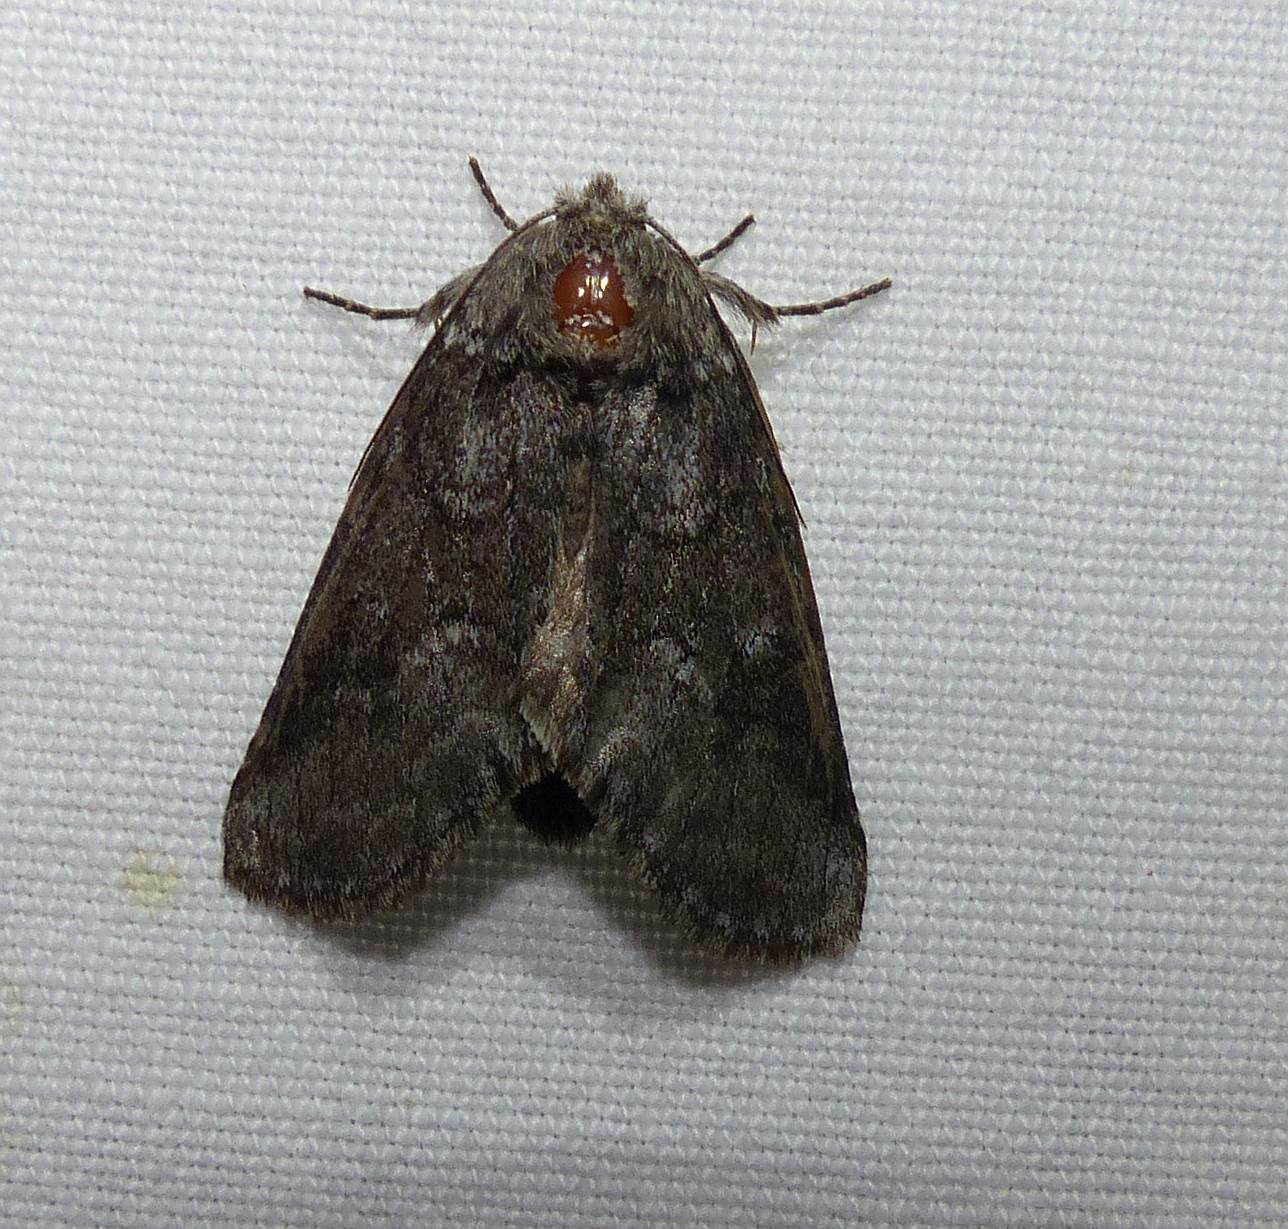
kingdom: Animalia
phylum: Arthropoda
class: Insecta
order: Lepidoptera
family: Notodontidae
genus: Lochmaeus
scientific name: Lochmaeus bilineata
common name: Double-lined prominent
